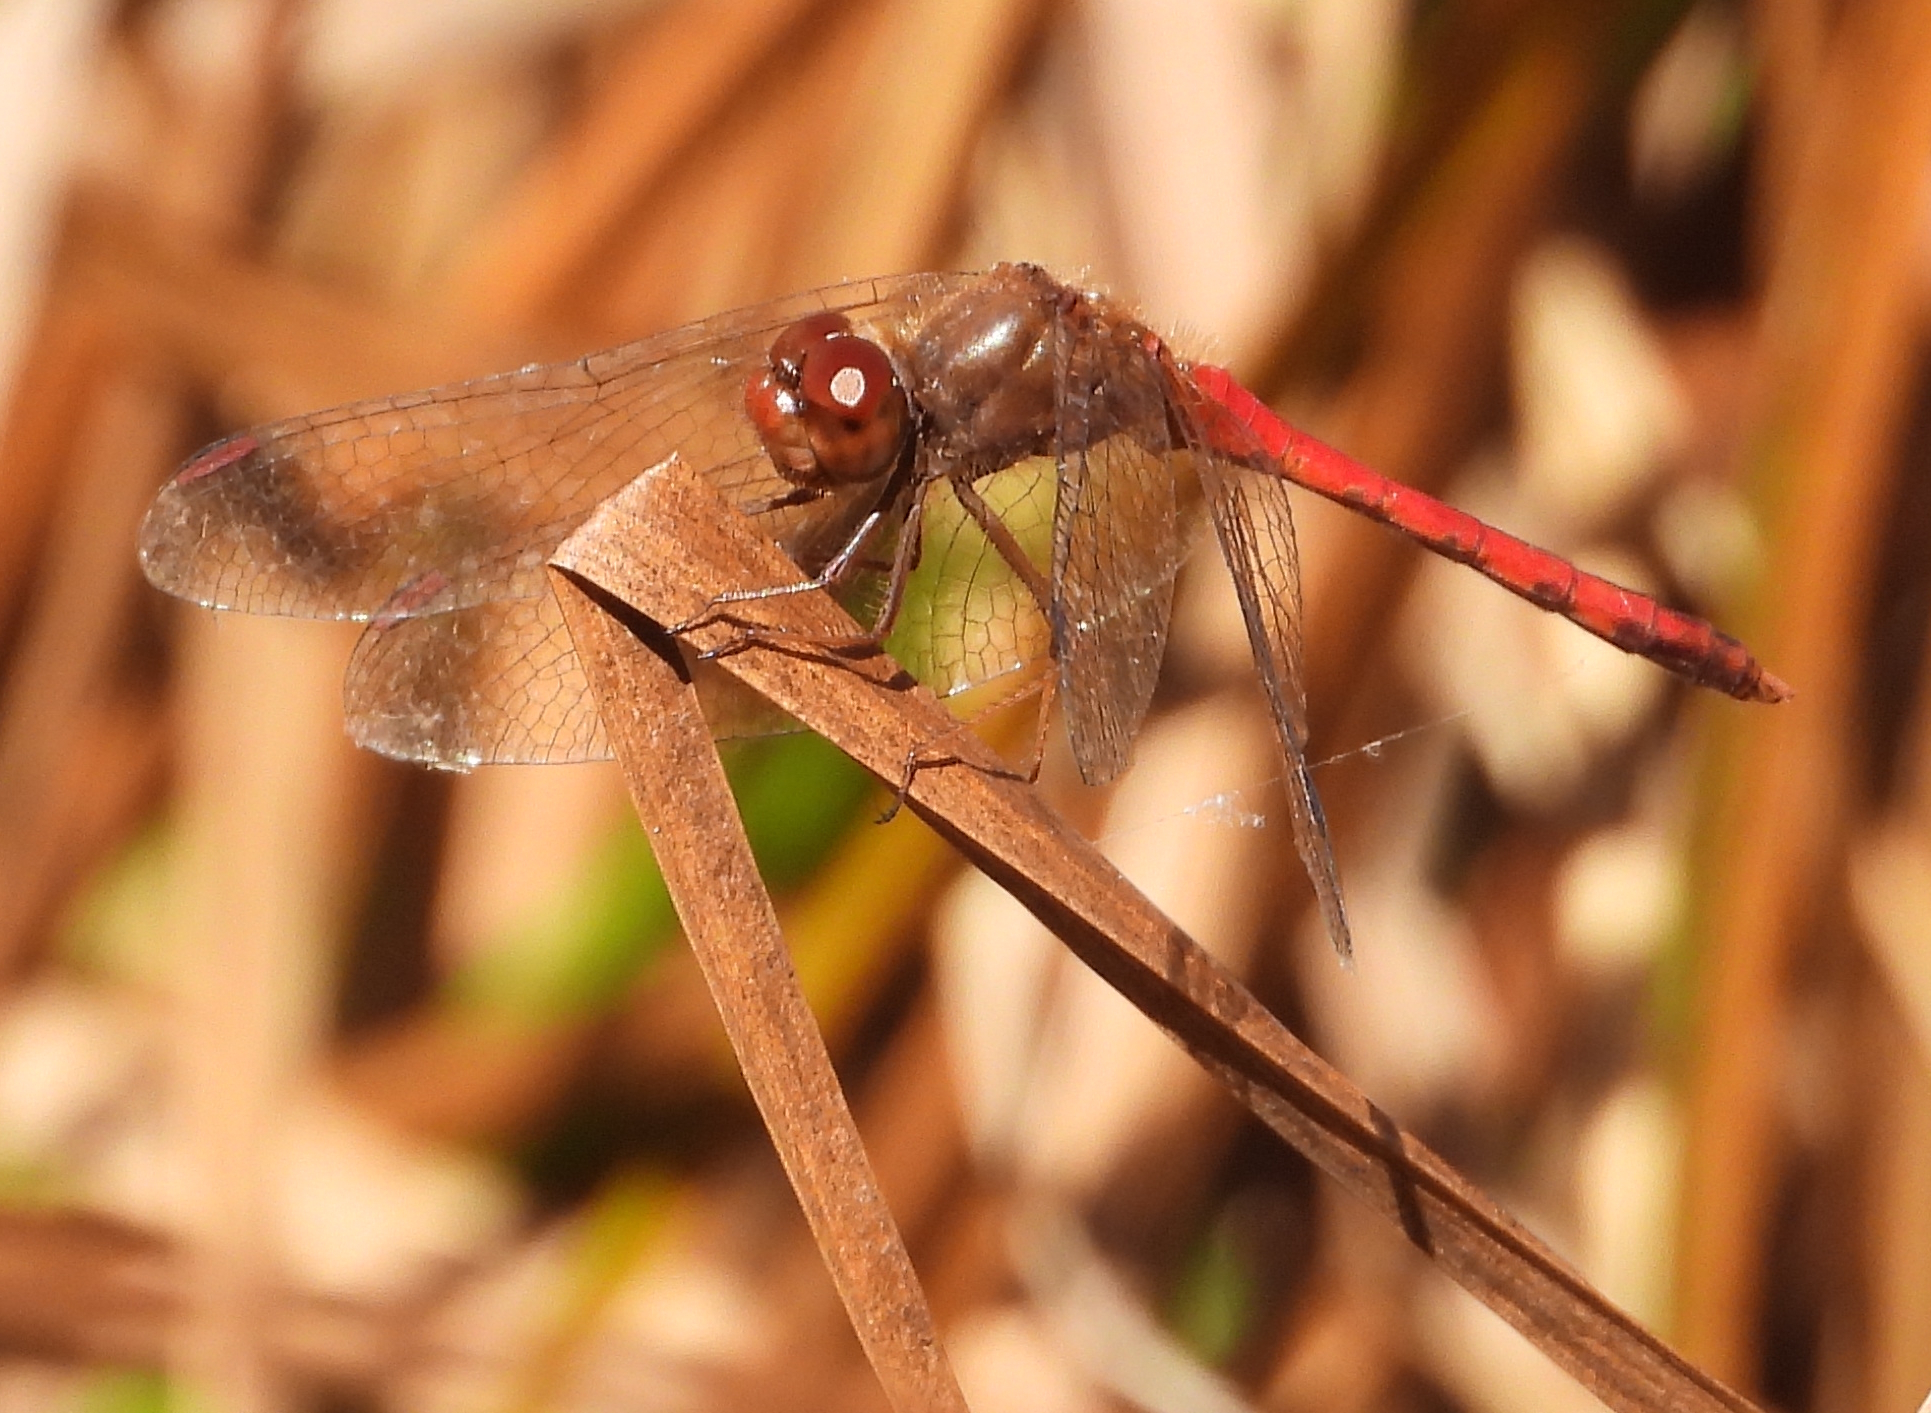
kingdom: Animalia
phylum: Arthropoda
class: Insecta
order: Odonata
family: Libellulidae
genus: Sympetrum
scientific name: Sympetrum vicinum
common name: Autumn meadowhawk
